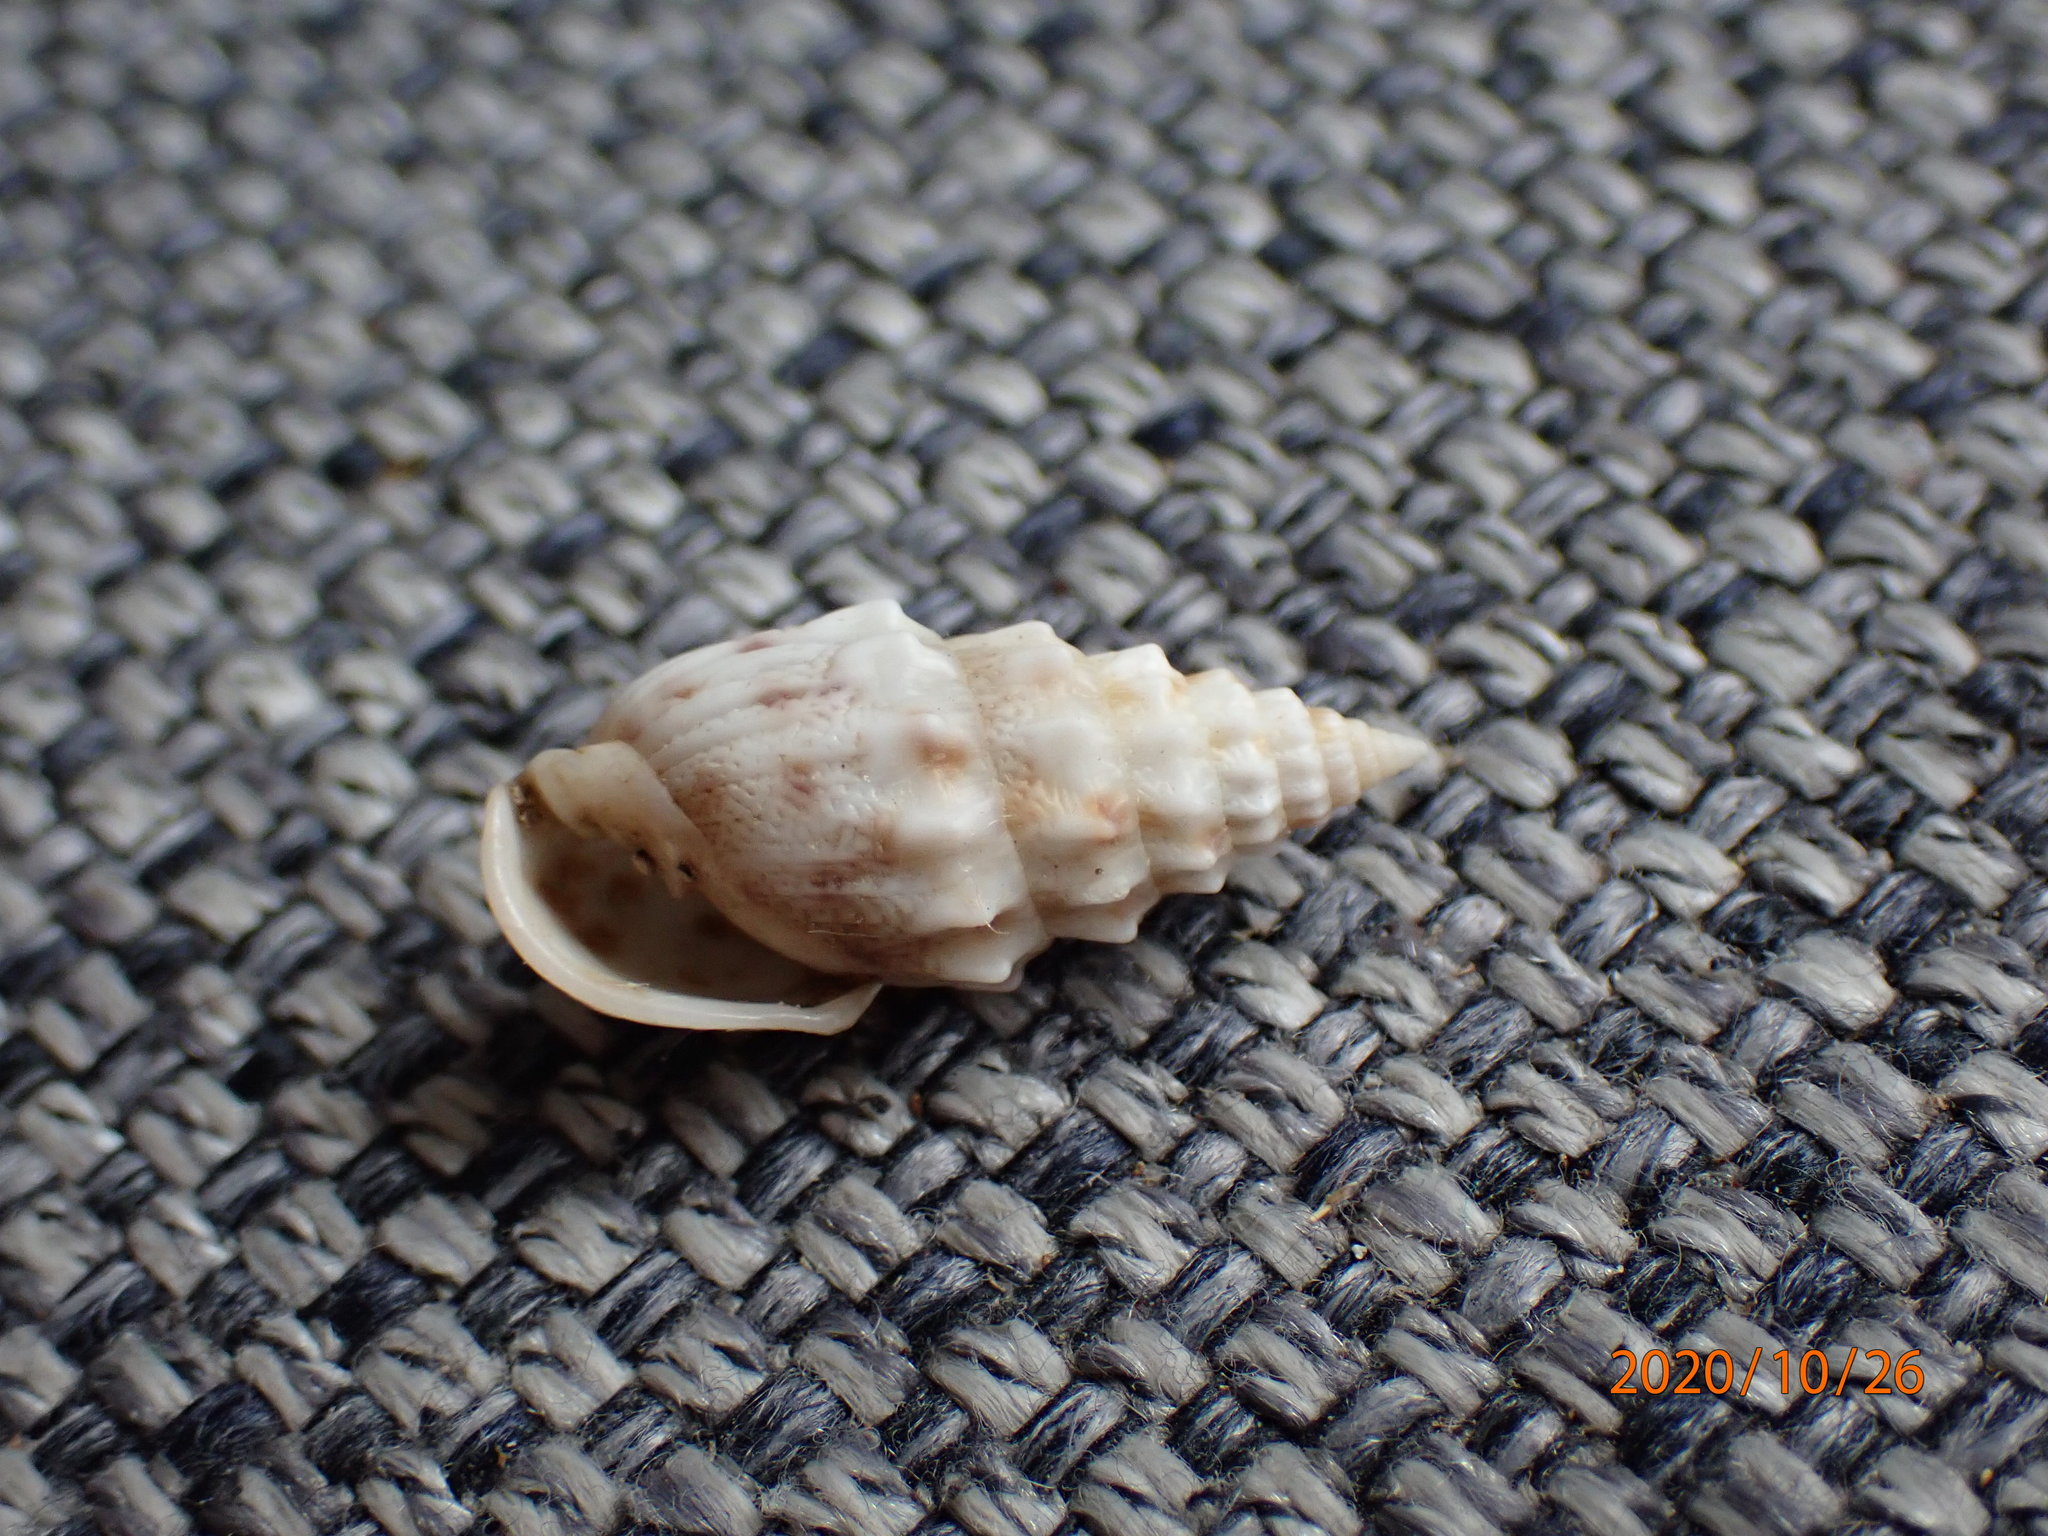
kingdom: Animalia
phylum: Mollusca
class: Gastropoda
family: Pyramidellidae
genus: Otopleura
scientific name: Otopleura nodicincta
